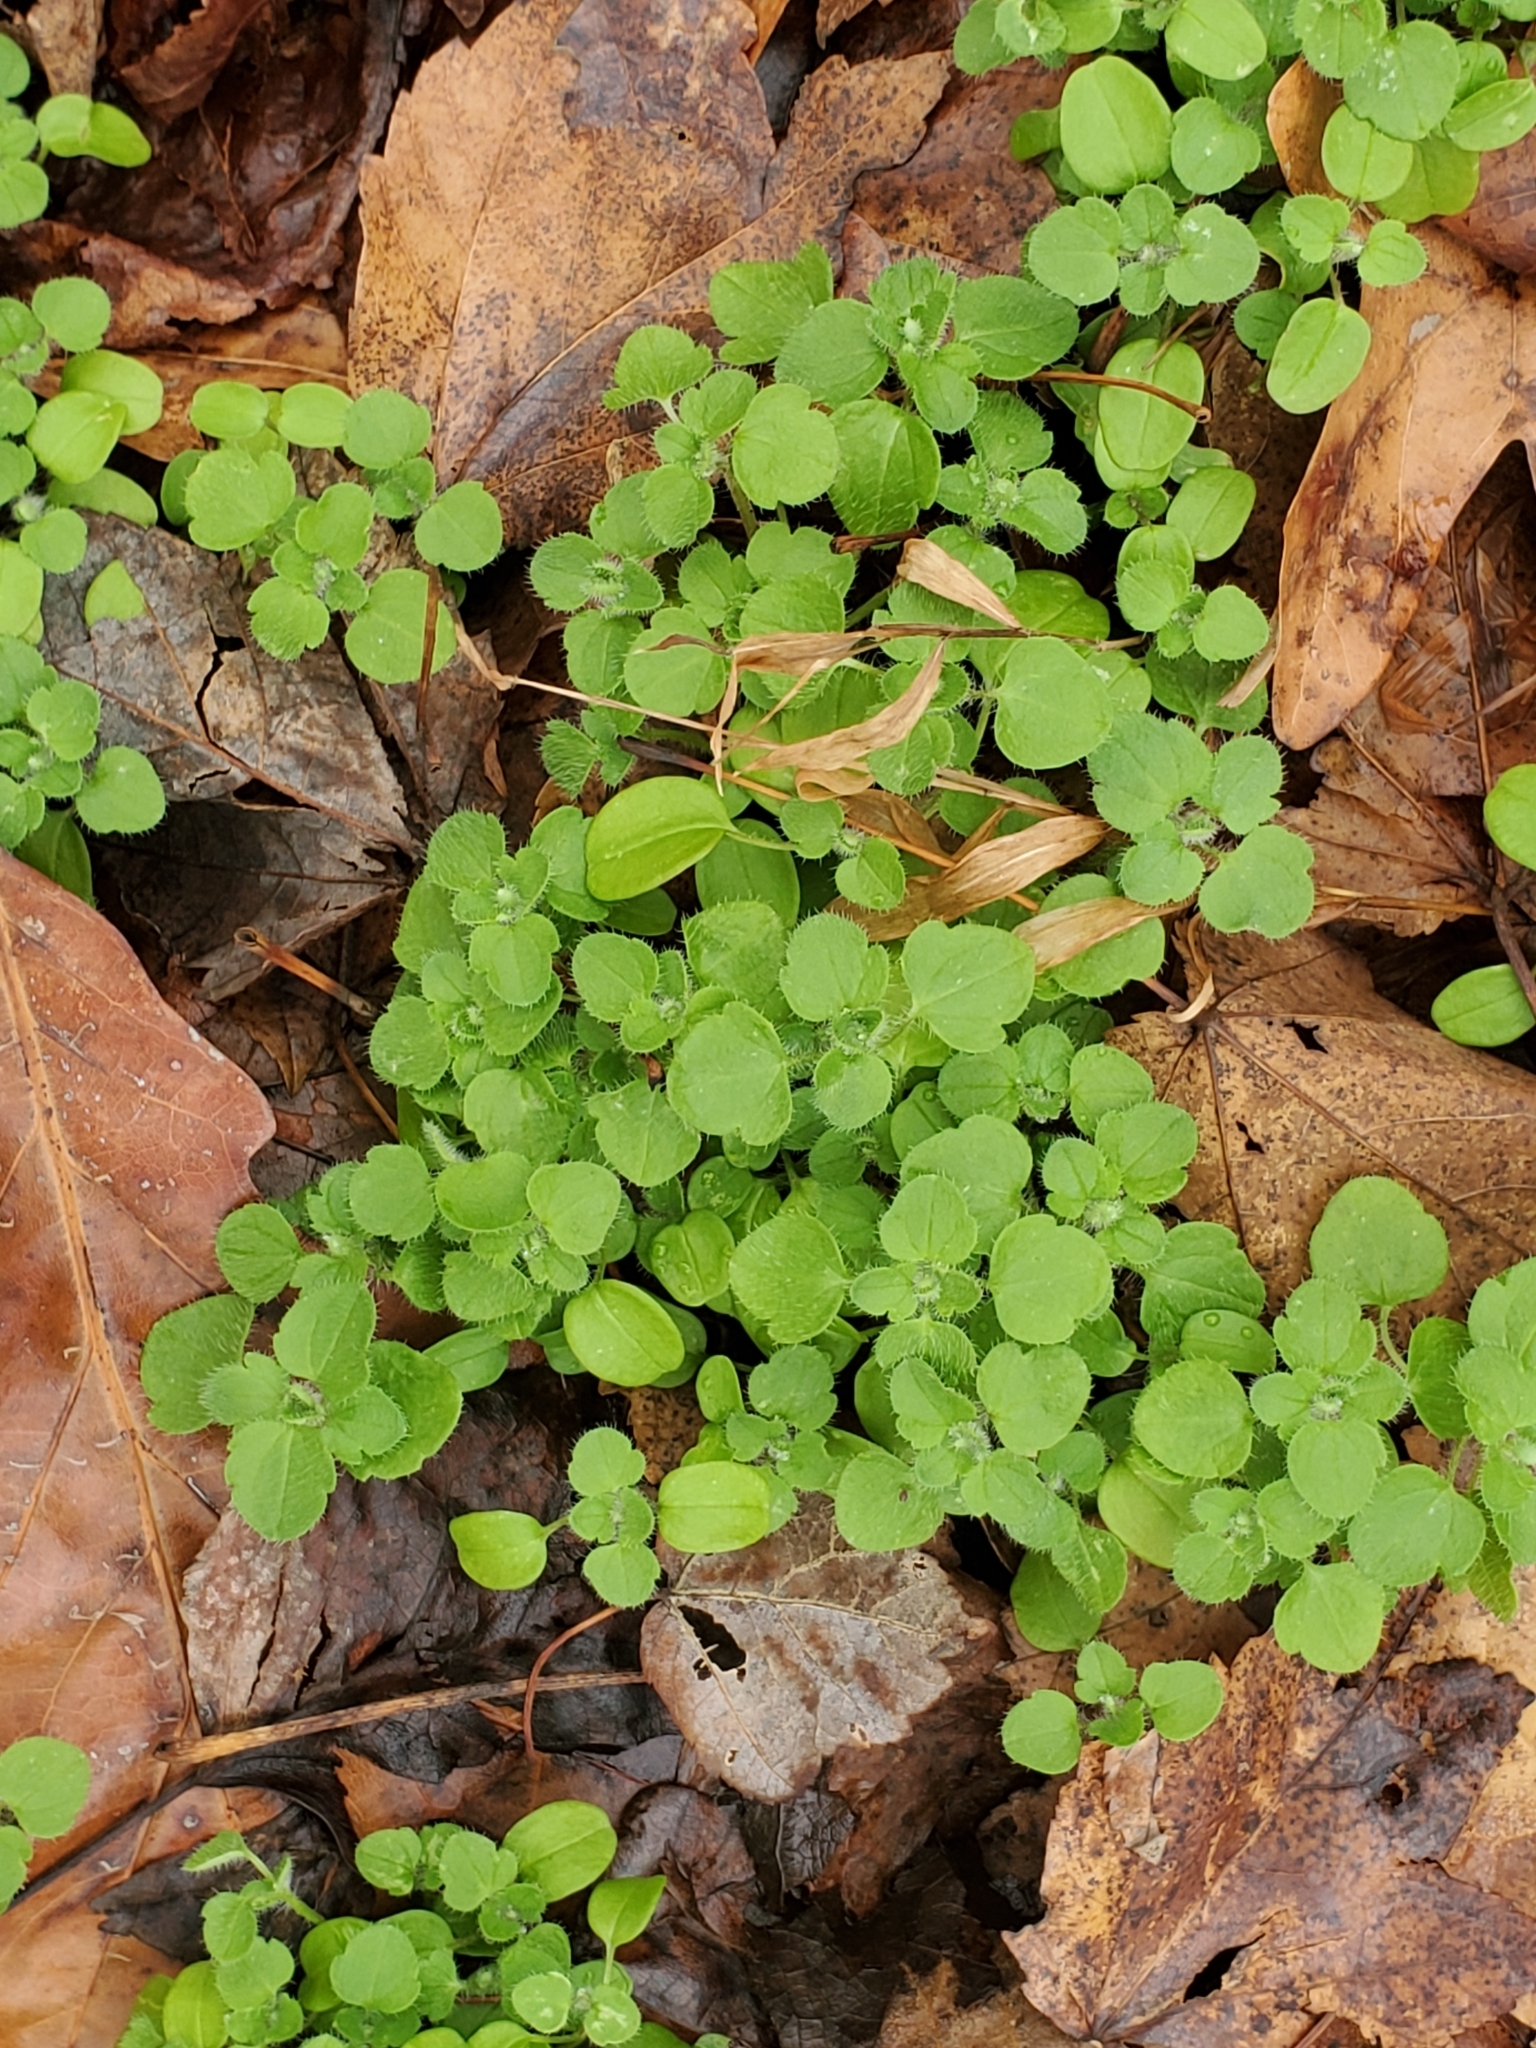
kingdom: Plantae
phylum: Tracheophyta
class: Magnoliopsida
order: Lamiales
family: Plantaginaceae
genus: Veronica
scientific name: Veronica hederifolia
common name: Ivy-leaved speedwell
